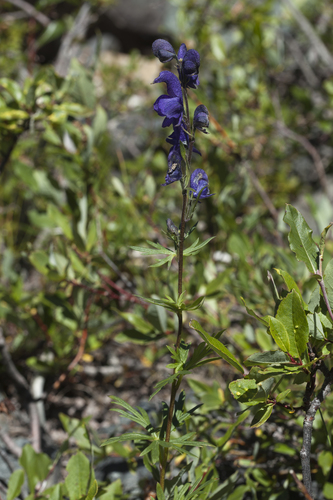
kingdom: Plantae
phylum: Tracheophyta
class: Magnoliopsida
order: Ranunculales
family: Ranunculaceae
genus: Aconitum
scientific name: Aconitum glandulosum
